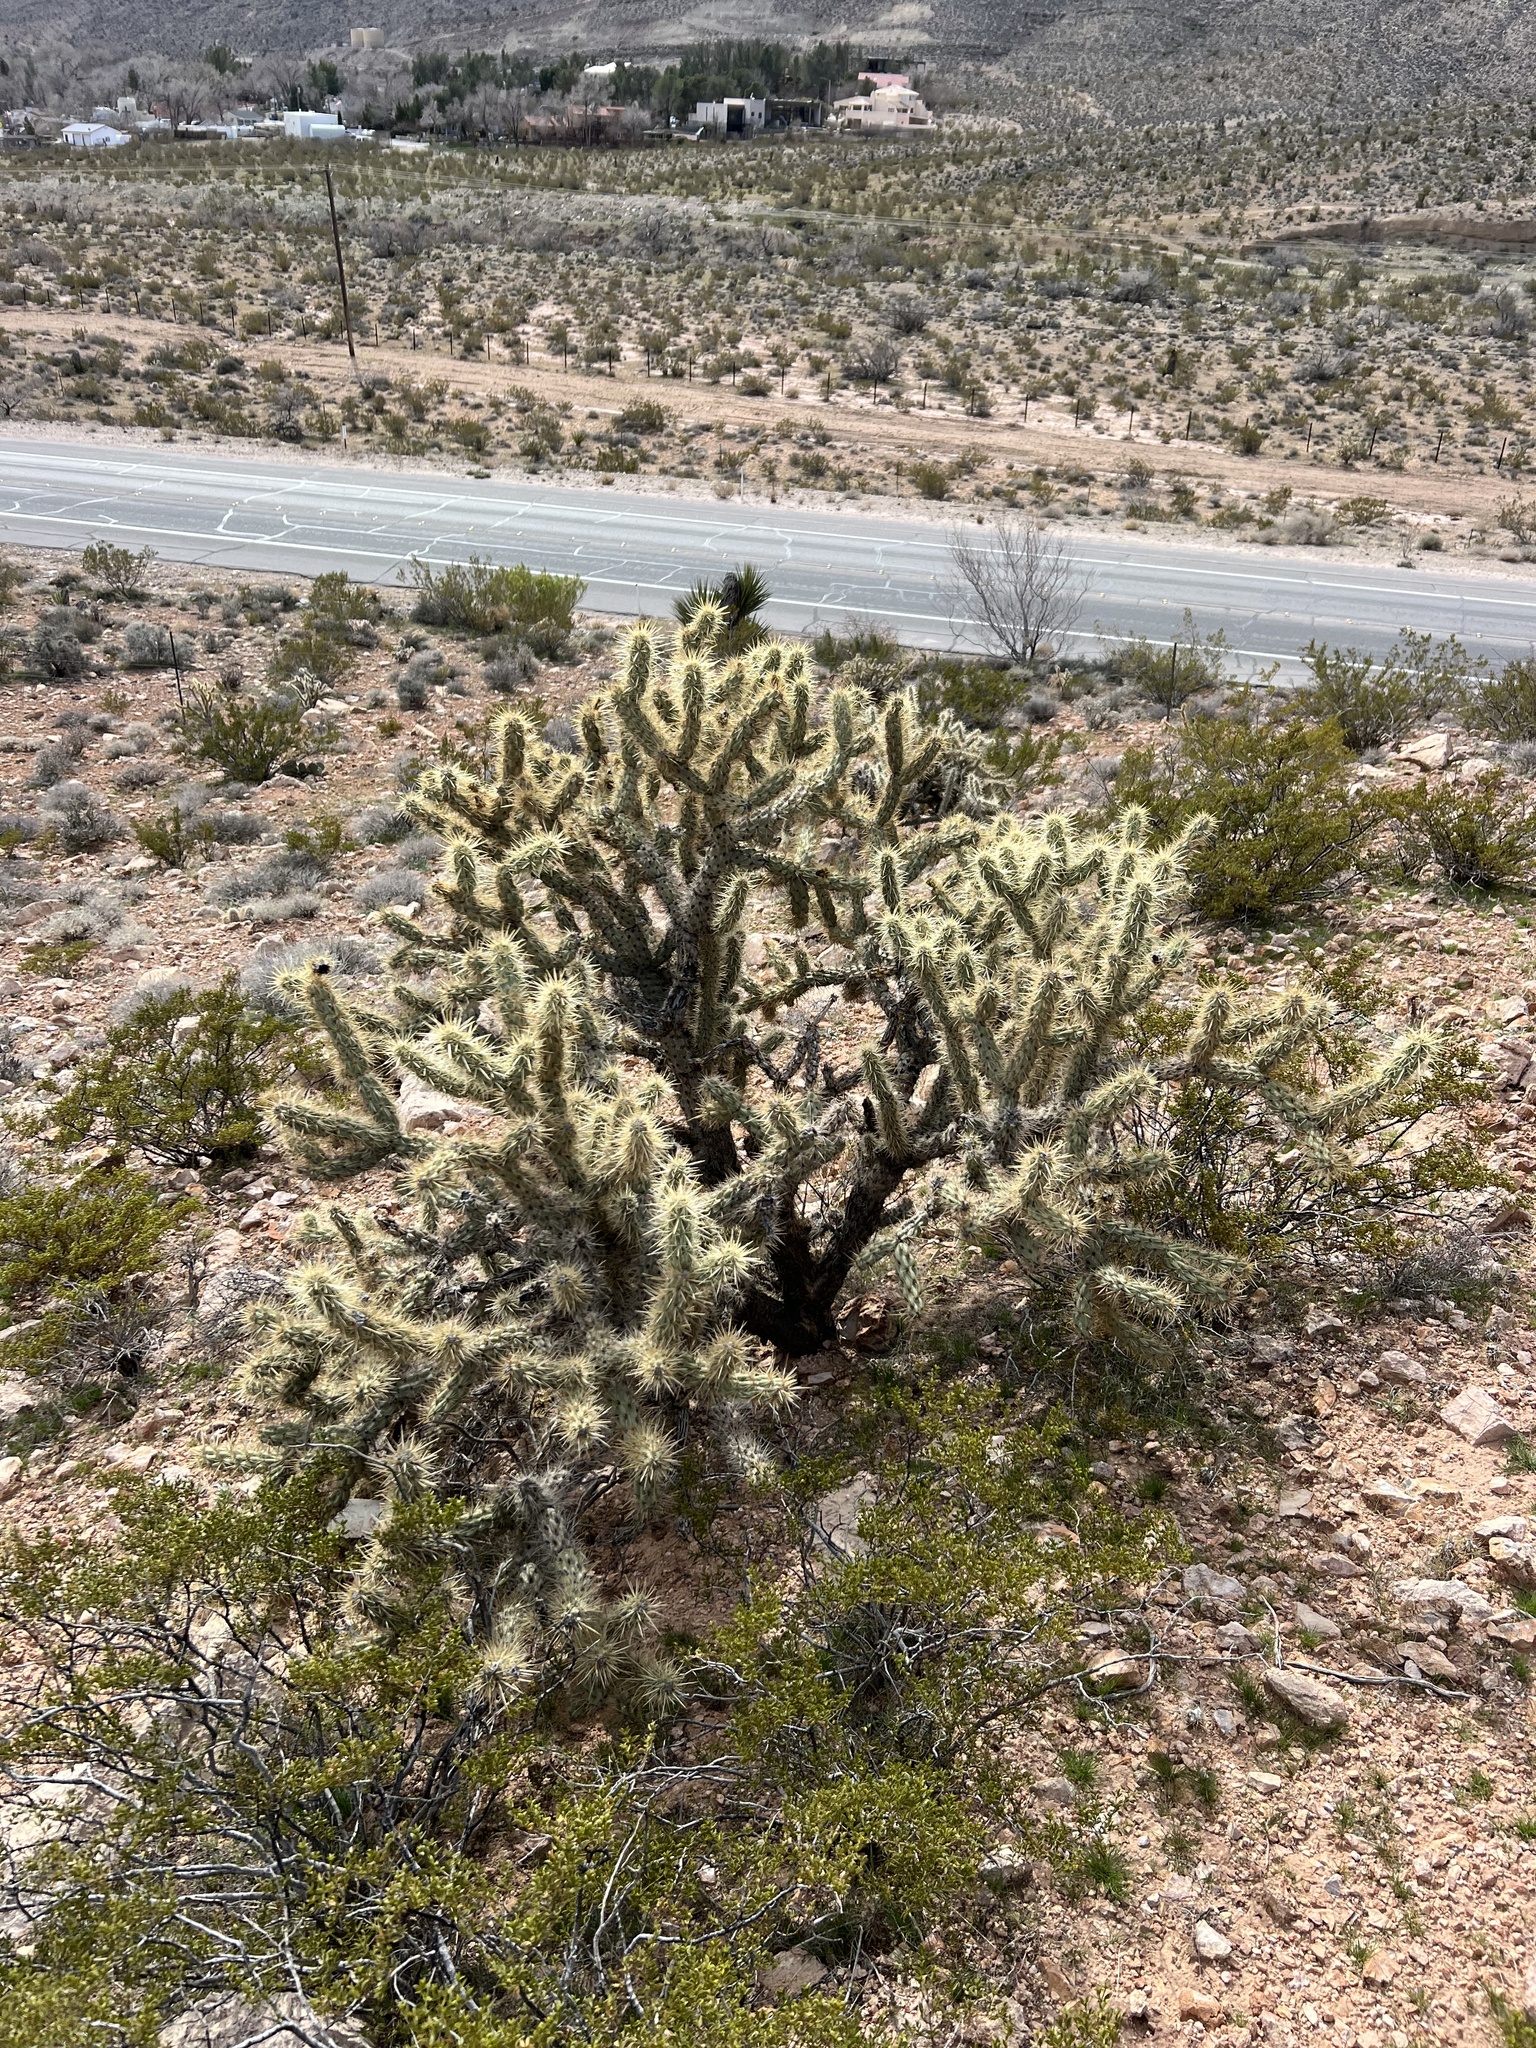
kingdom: Plantae
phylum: Tracheophyta
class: Magnoliopsida
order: Caryophyllales
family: Cactaceae
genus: Cylindropuntia
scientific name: Cylindropuntia acanthocarpa
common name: Buckhorn cholla
